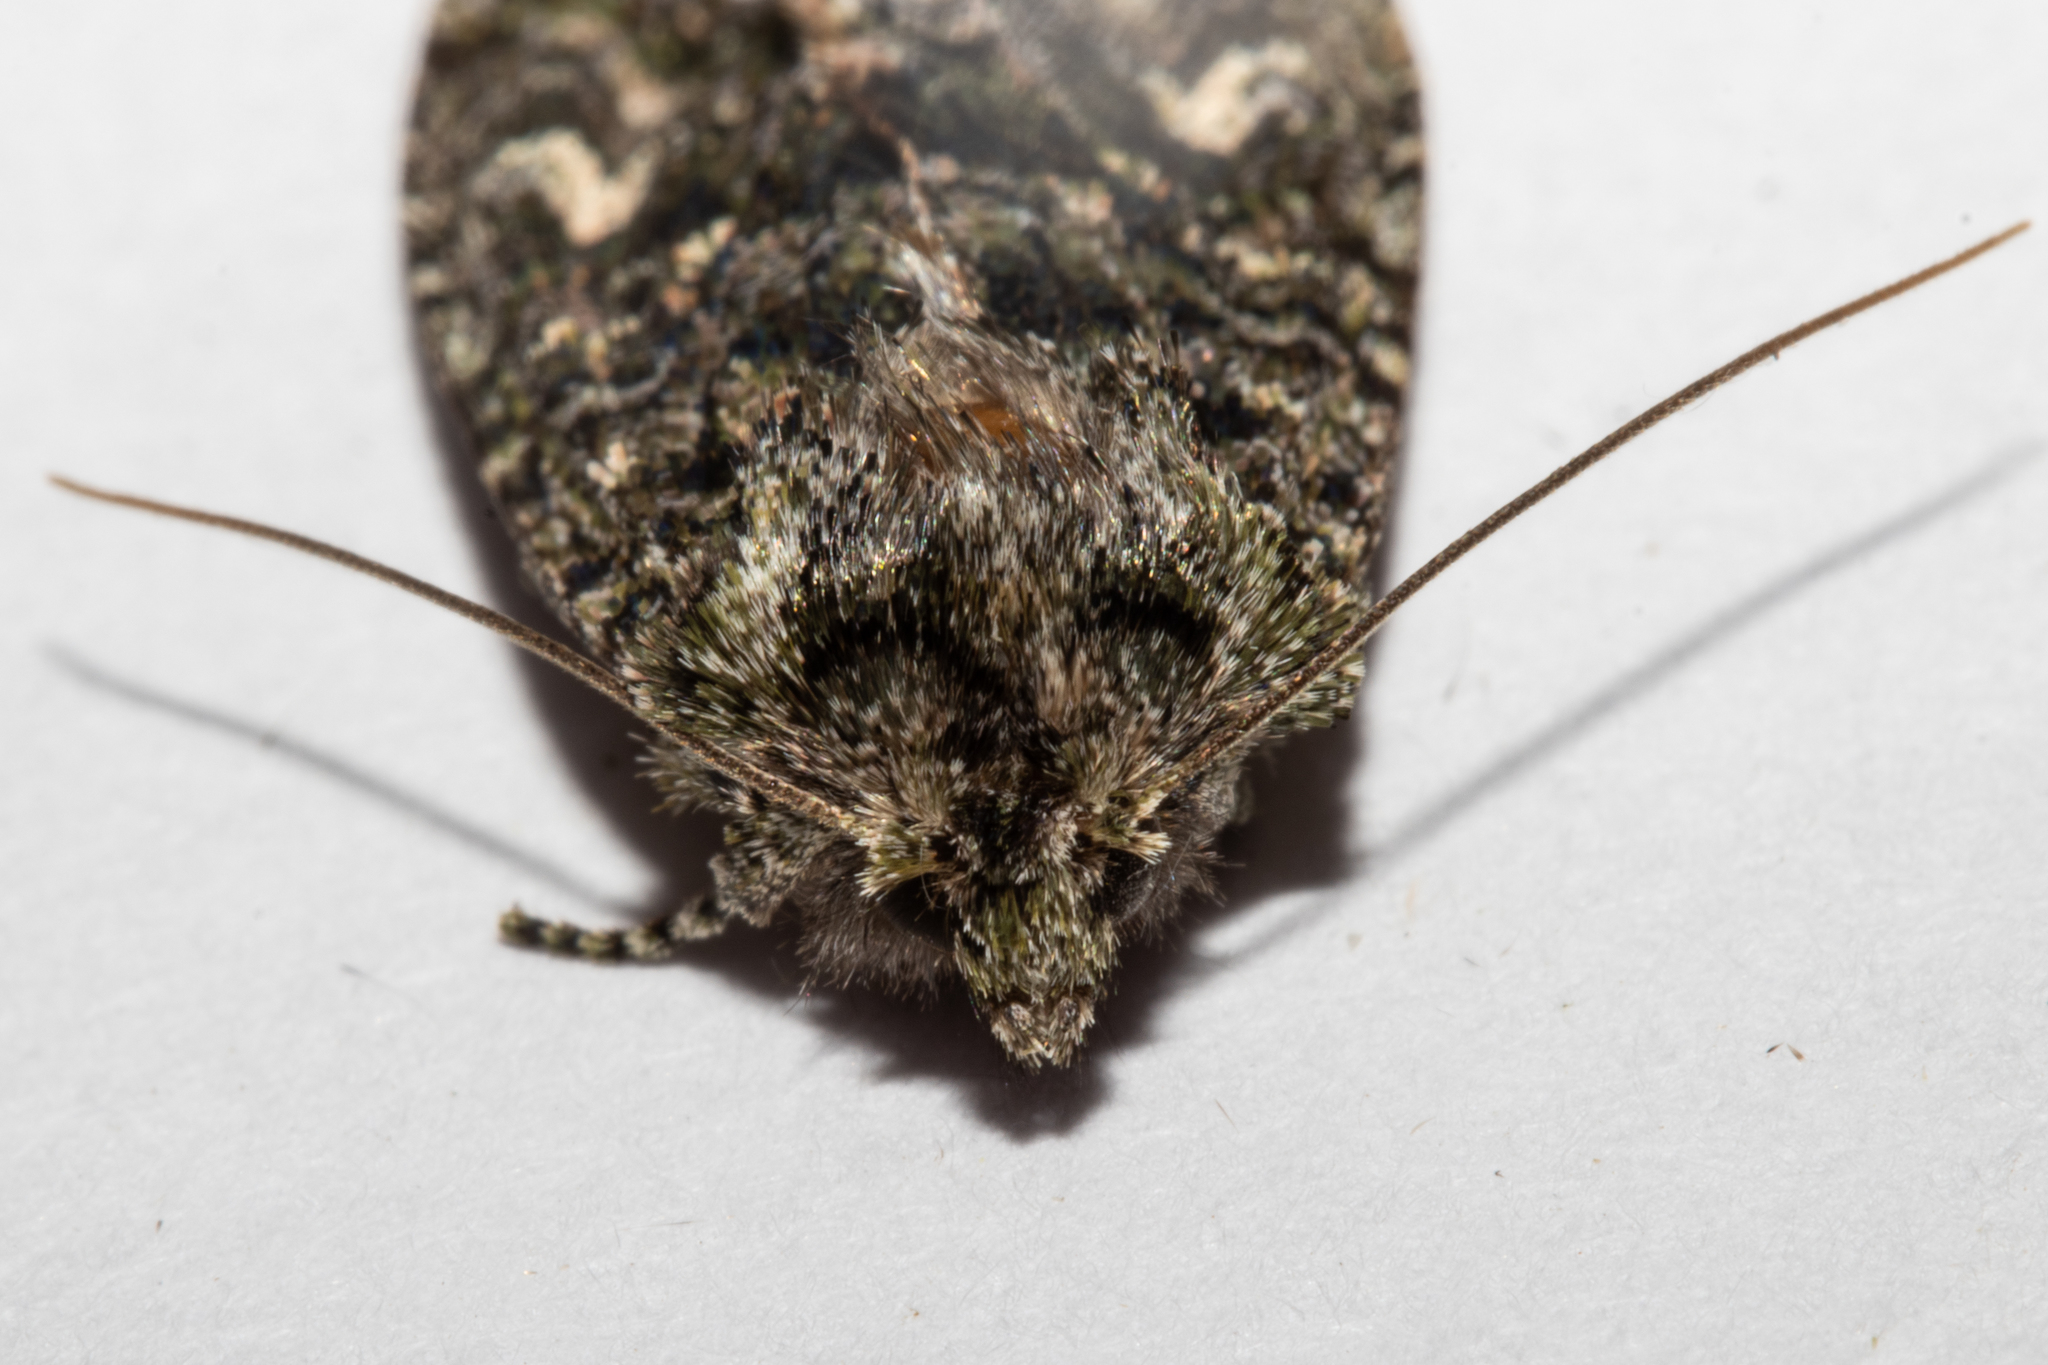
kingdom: Animalia
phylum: Arthropoda
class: Insecta
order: Lepidoptera
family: Noctuidae
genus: Ichneutica
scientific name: Ichneutica
